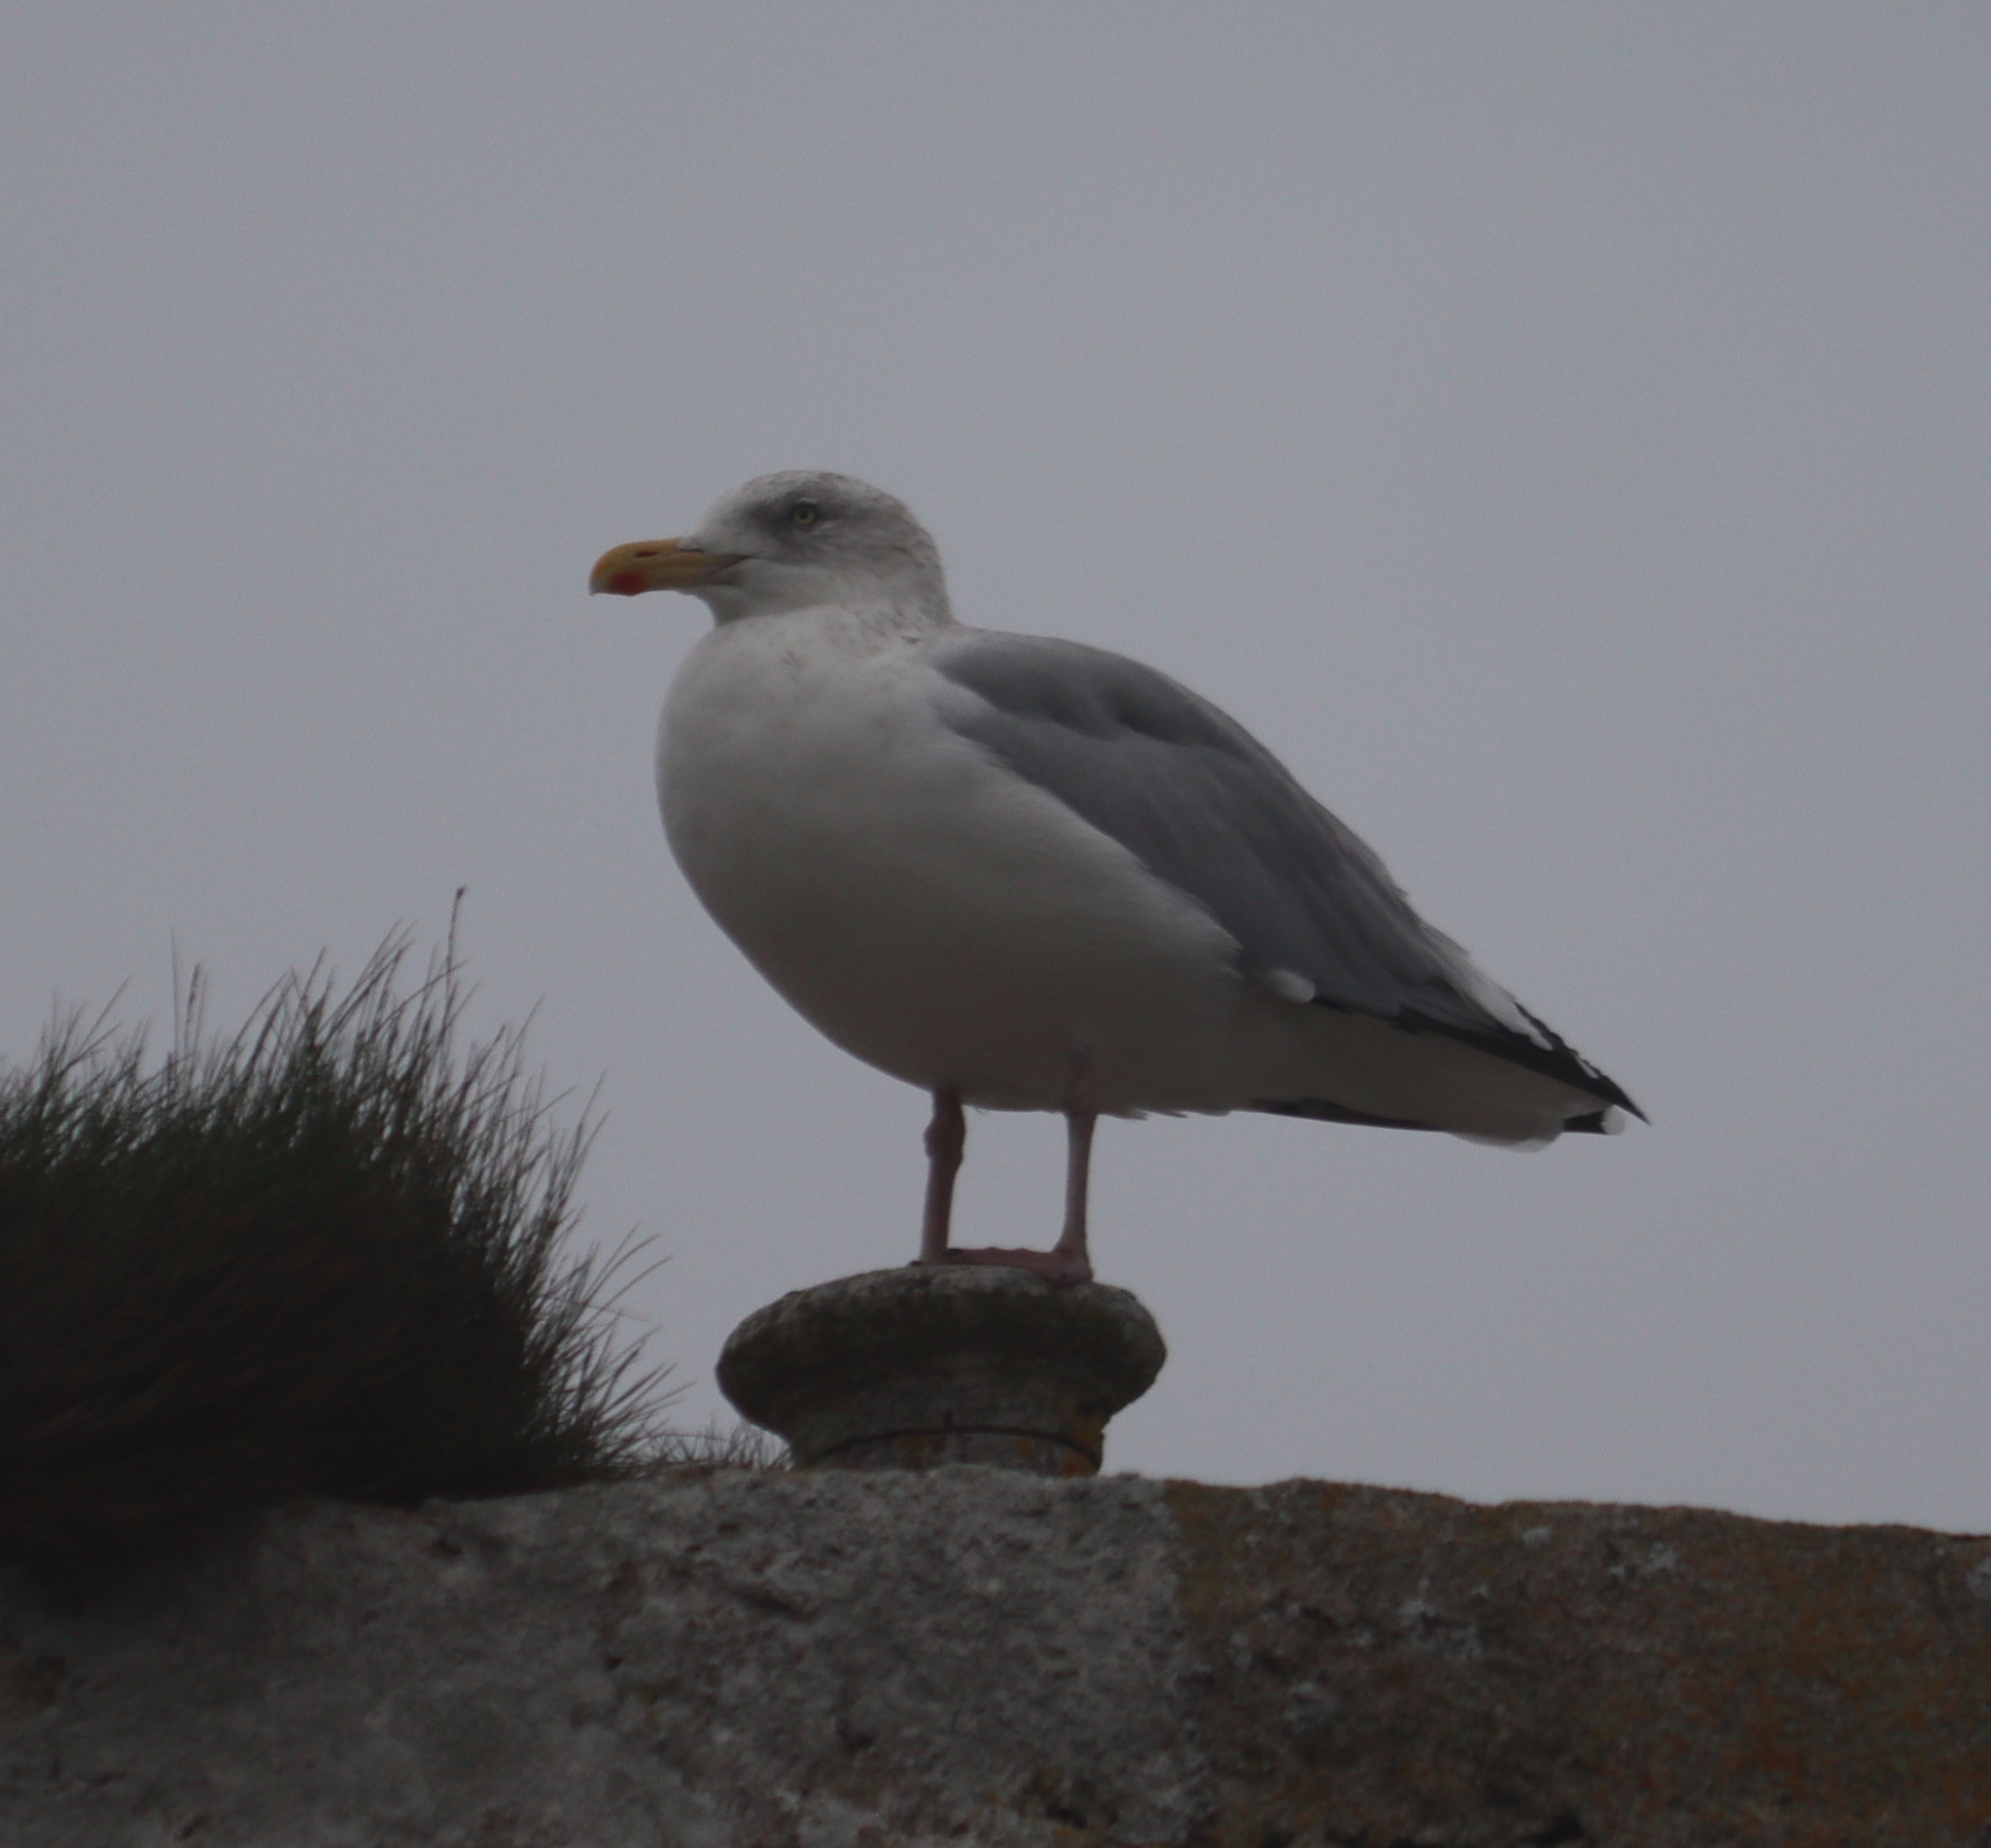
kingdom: Animalia
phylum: Chordata
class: Aves
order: Charadriiformes
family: Laridae
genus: Larus
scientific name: Larus argentatus
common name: Herring gull
